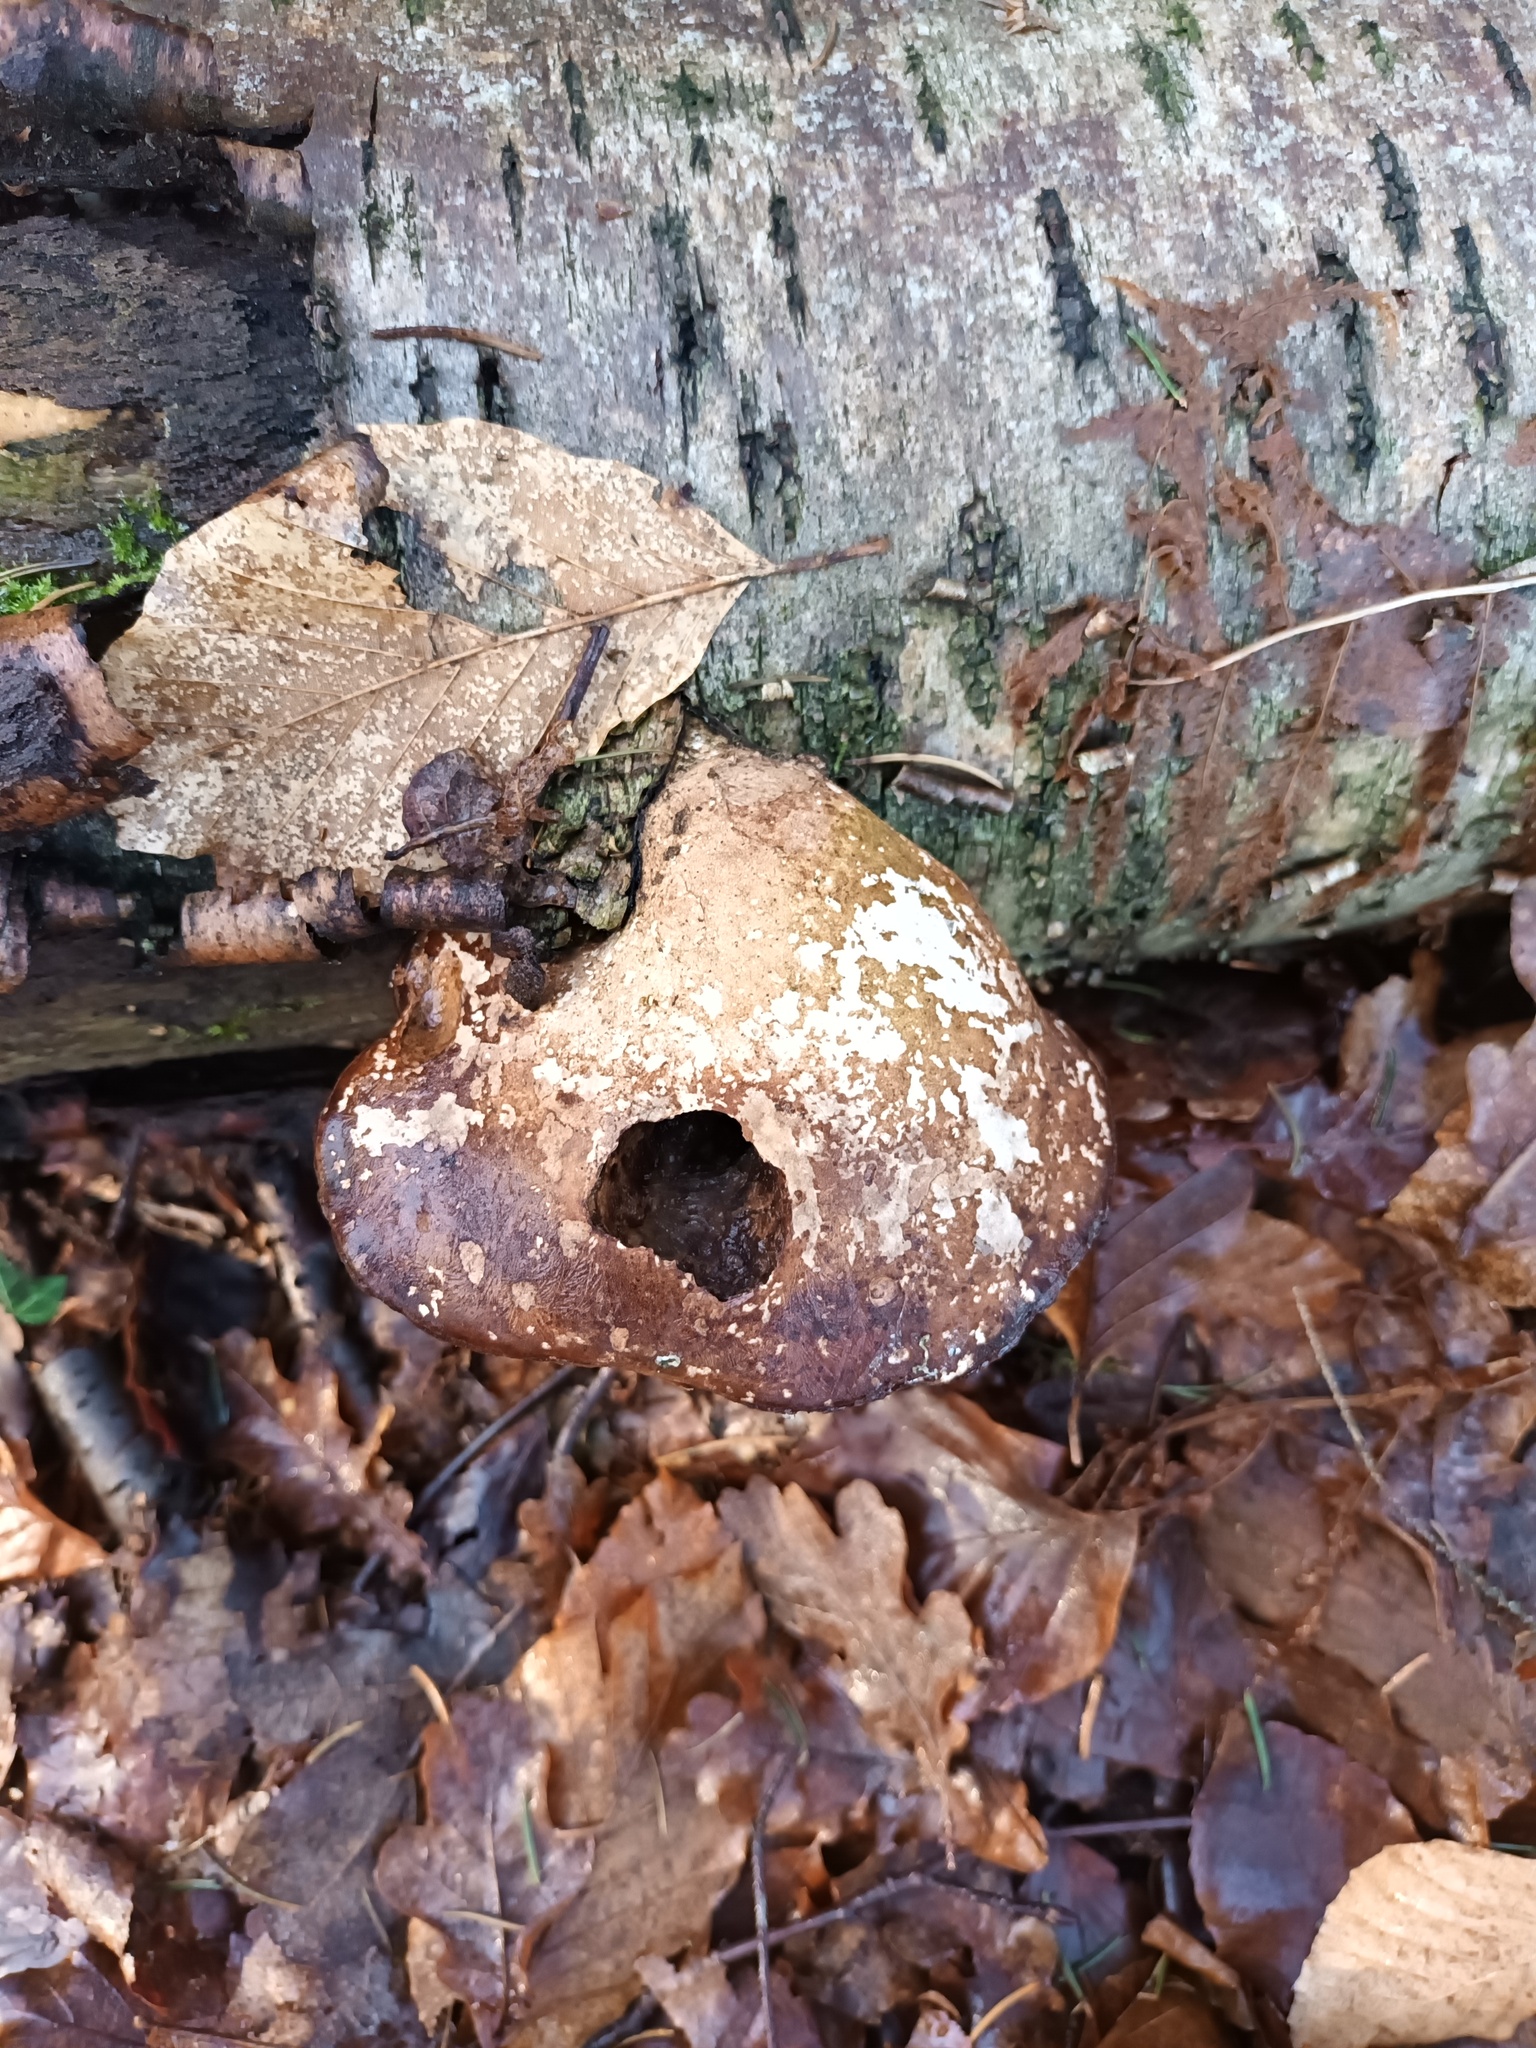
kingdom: Fungi
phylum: Basidiomycota
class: Agaricomycetes
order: Polyporales
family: Fomitopsidaceae
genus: Fomitopsis
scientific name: Fomitopsis betulina
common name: Birch polypore
